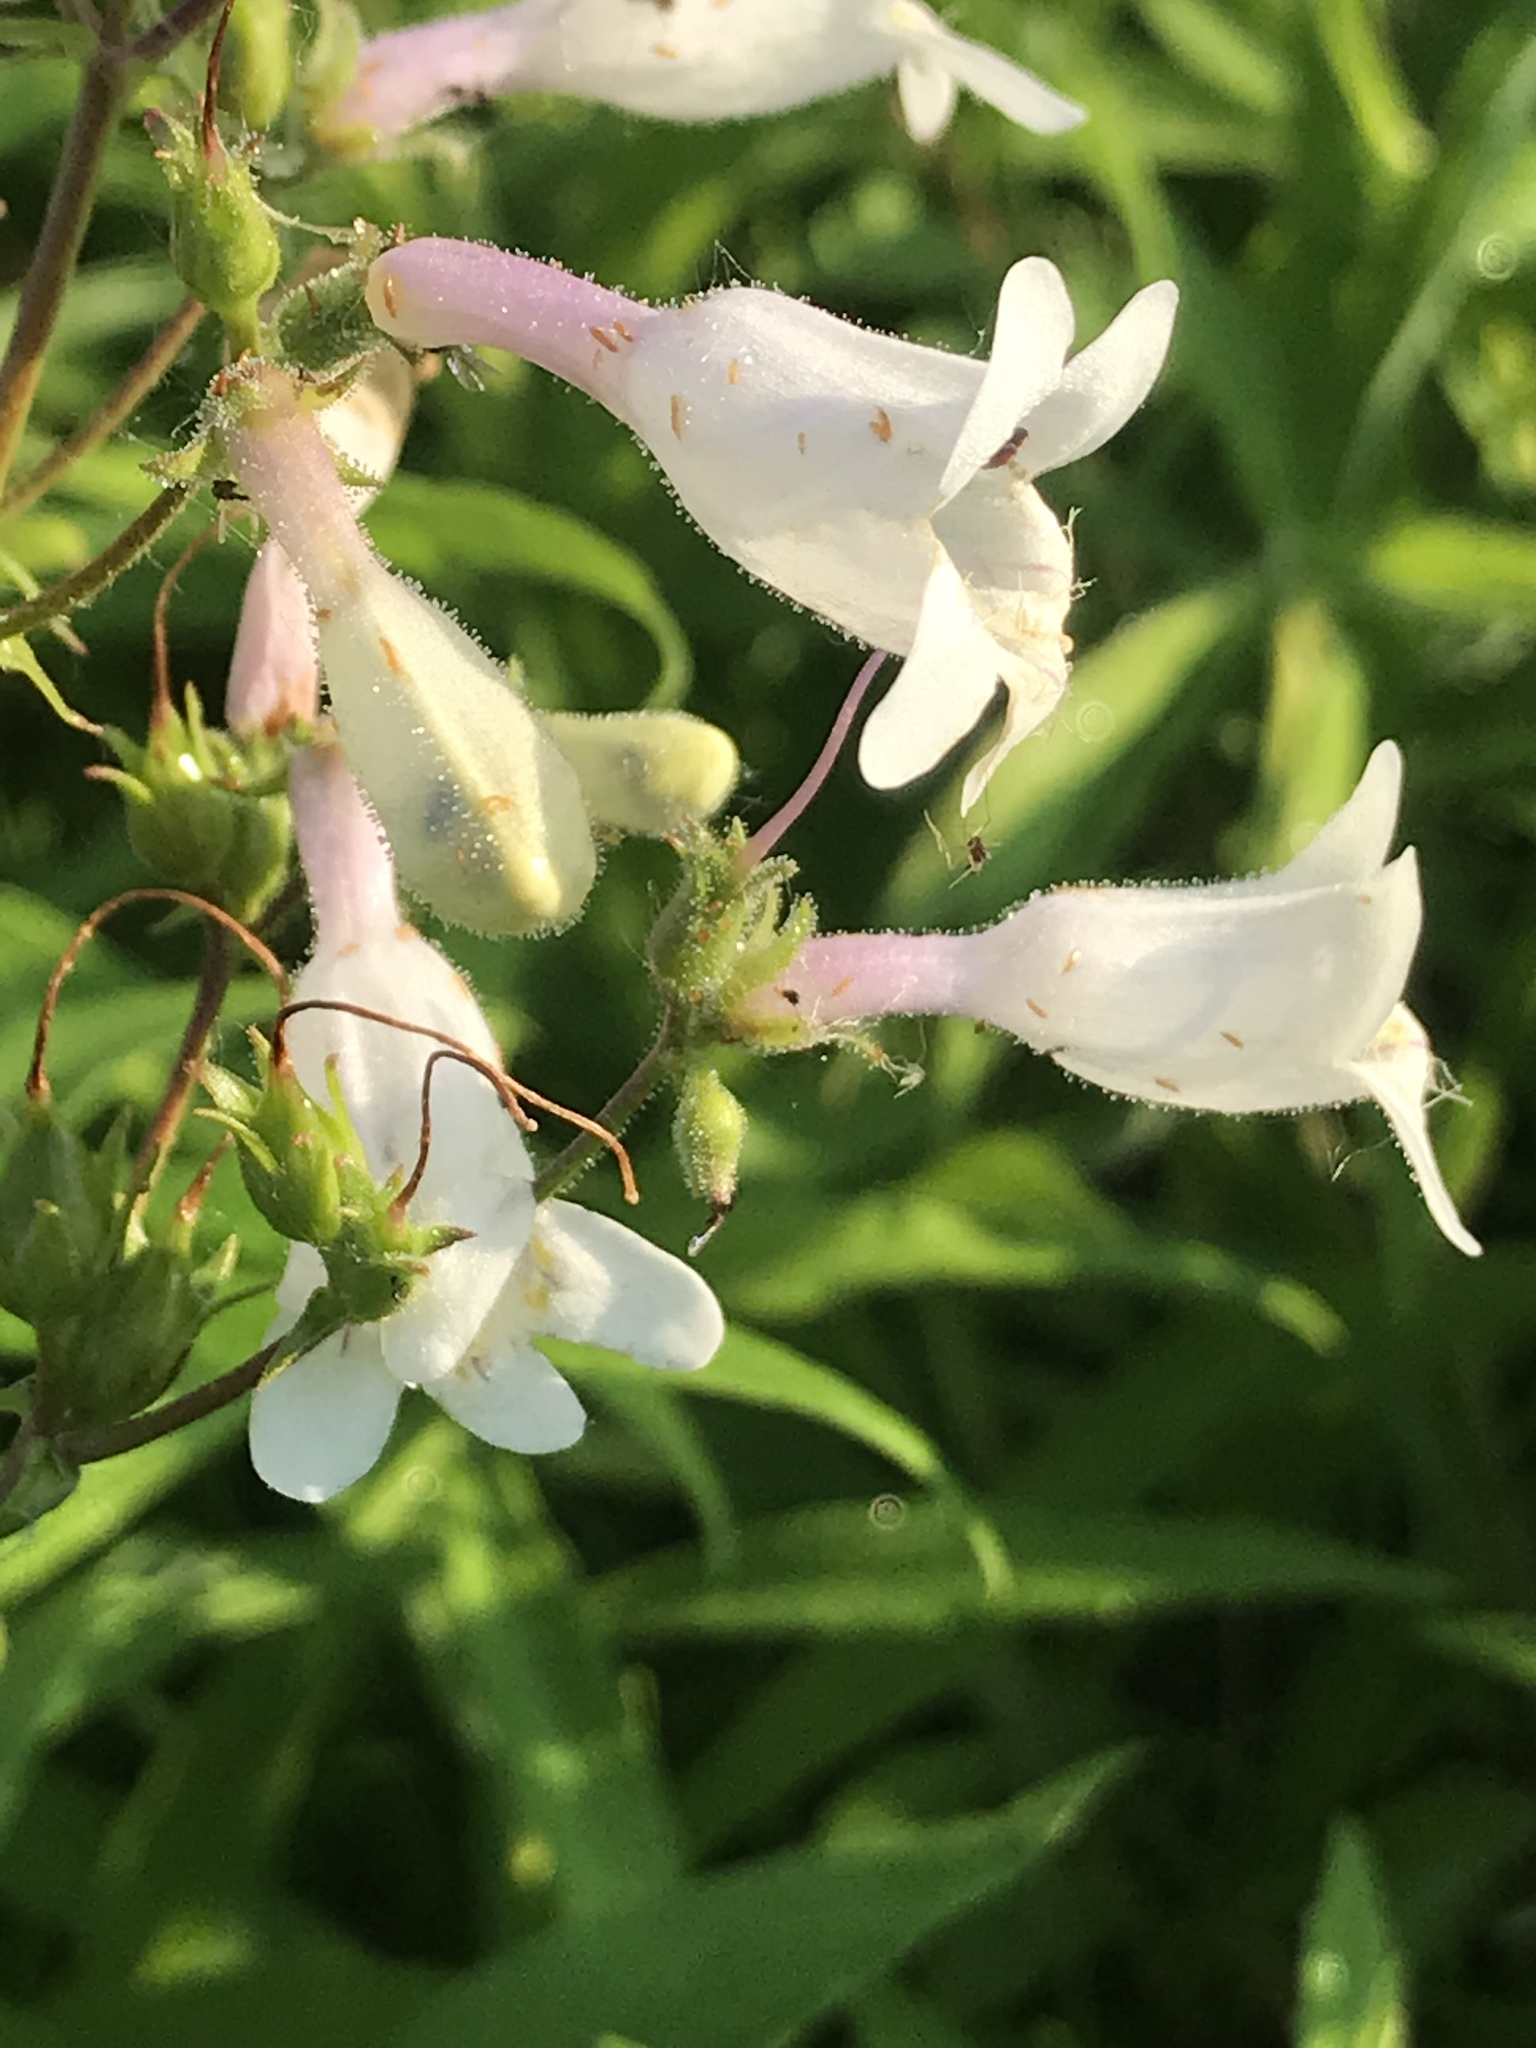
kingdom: Plantae
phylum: Tracheophyta
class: Magnoliopsida
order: Lamiales
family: Plantaginaceae
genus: Penstemon
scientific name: Penstemon digitalis
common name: Foxglove beardtongue
